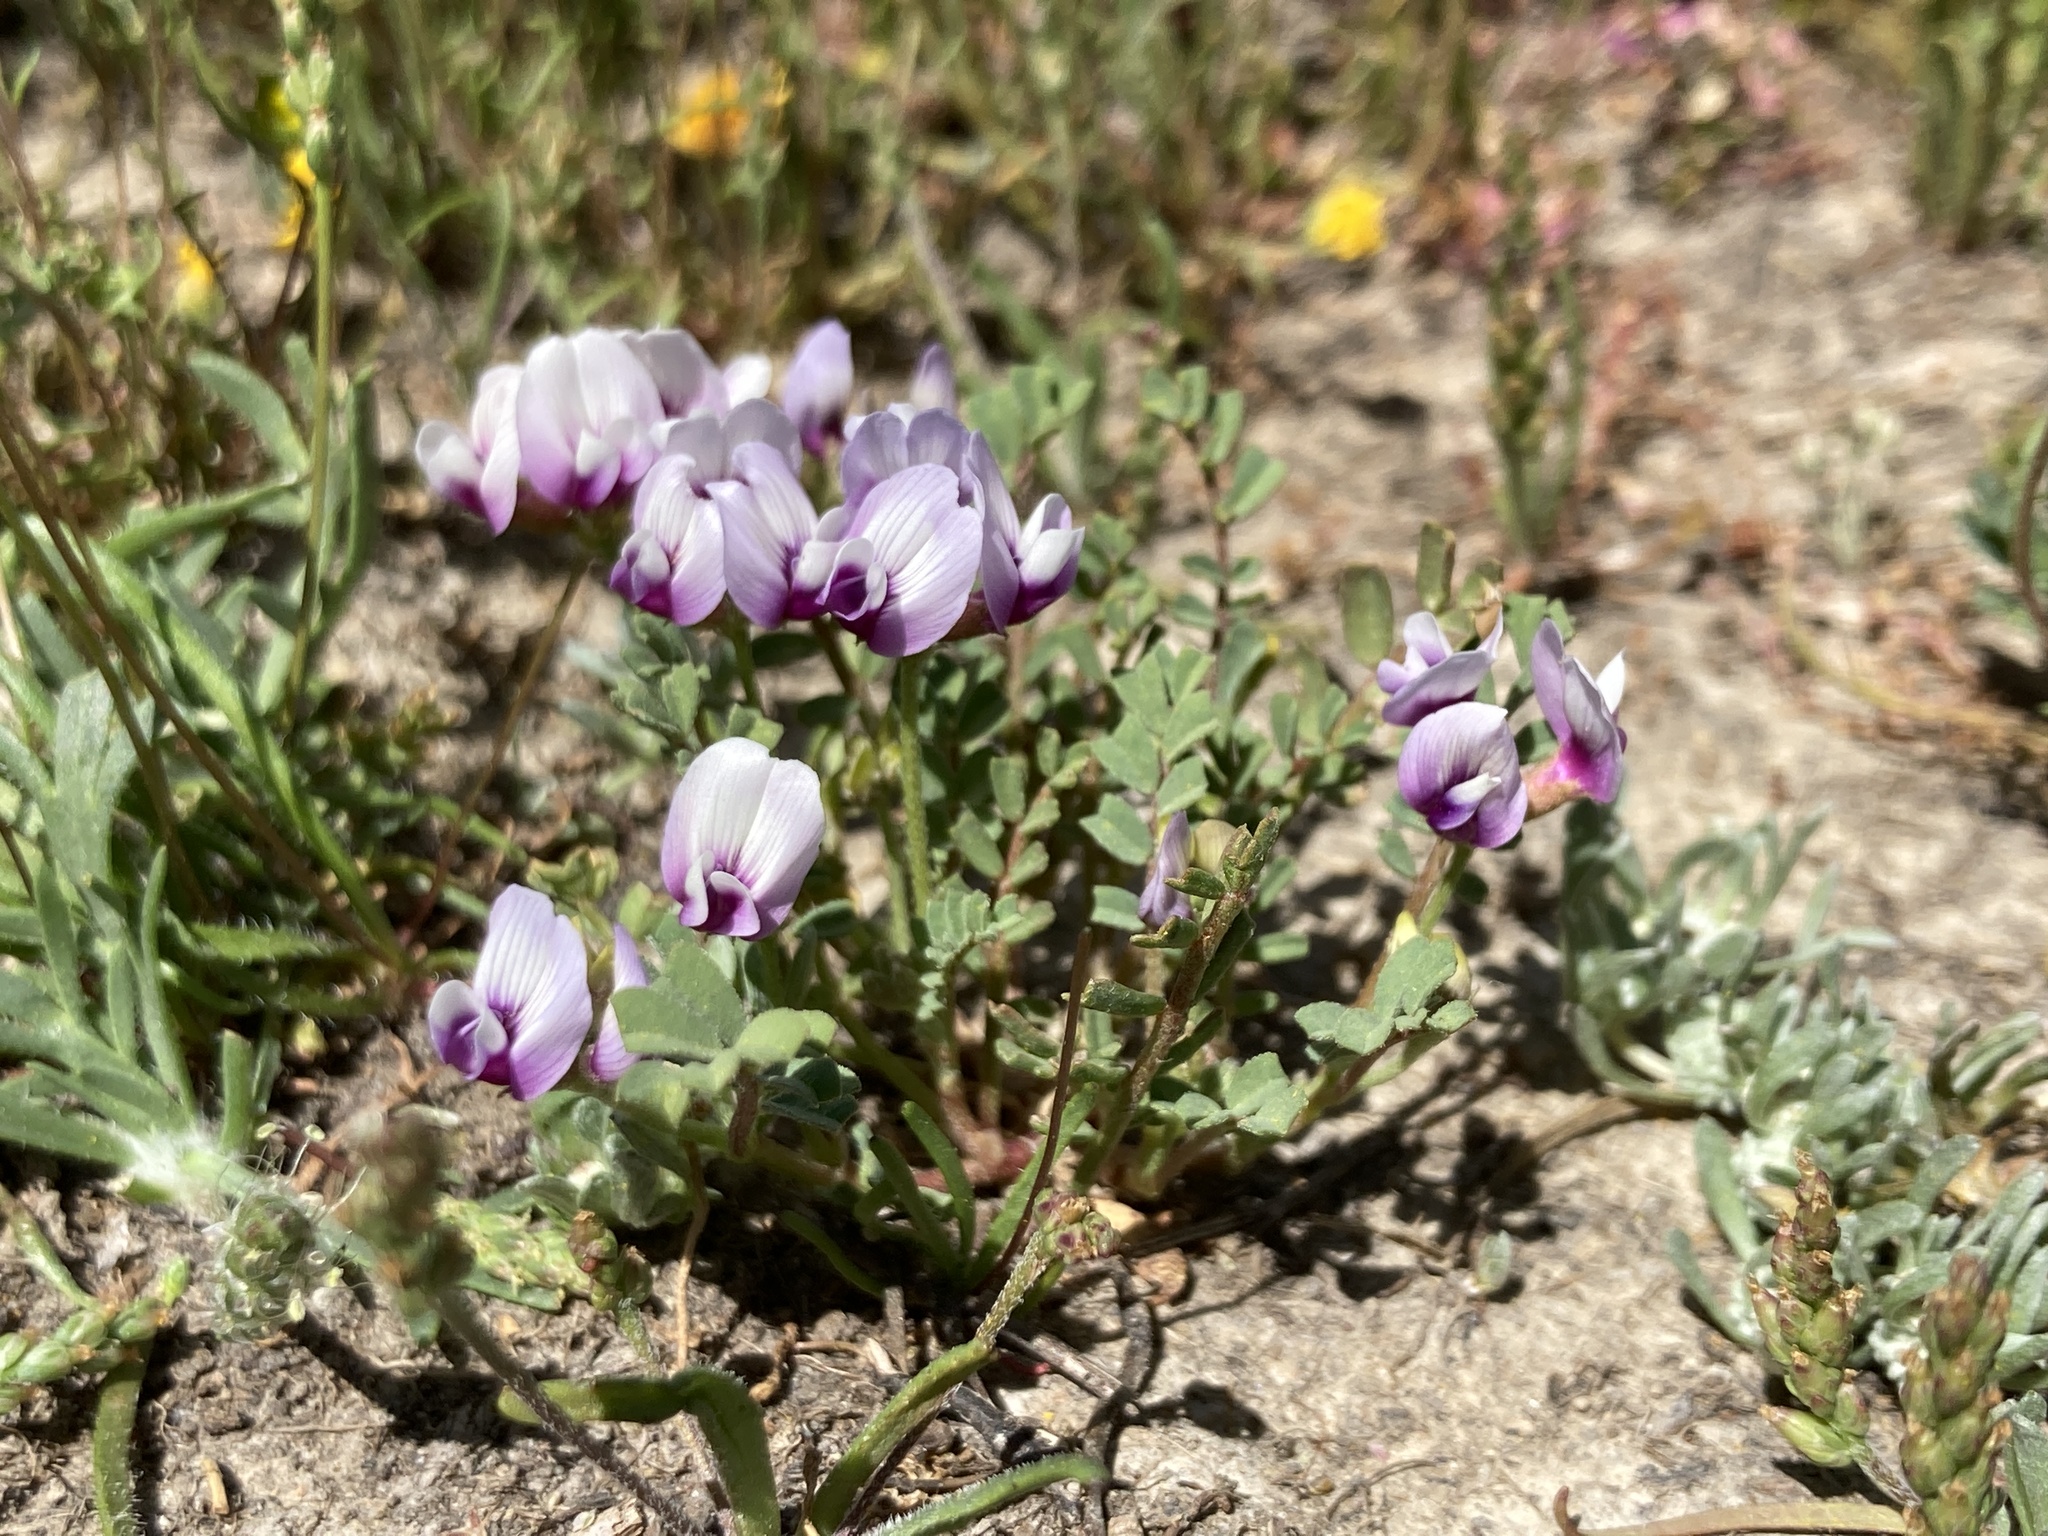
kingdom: Plantae
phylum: Tracheophyta
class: Magnoliopsida
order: Fabales
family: Fabaceae
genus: Astragalus
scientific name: Astragalus tener
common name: Gray slender milkvetch
